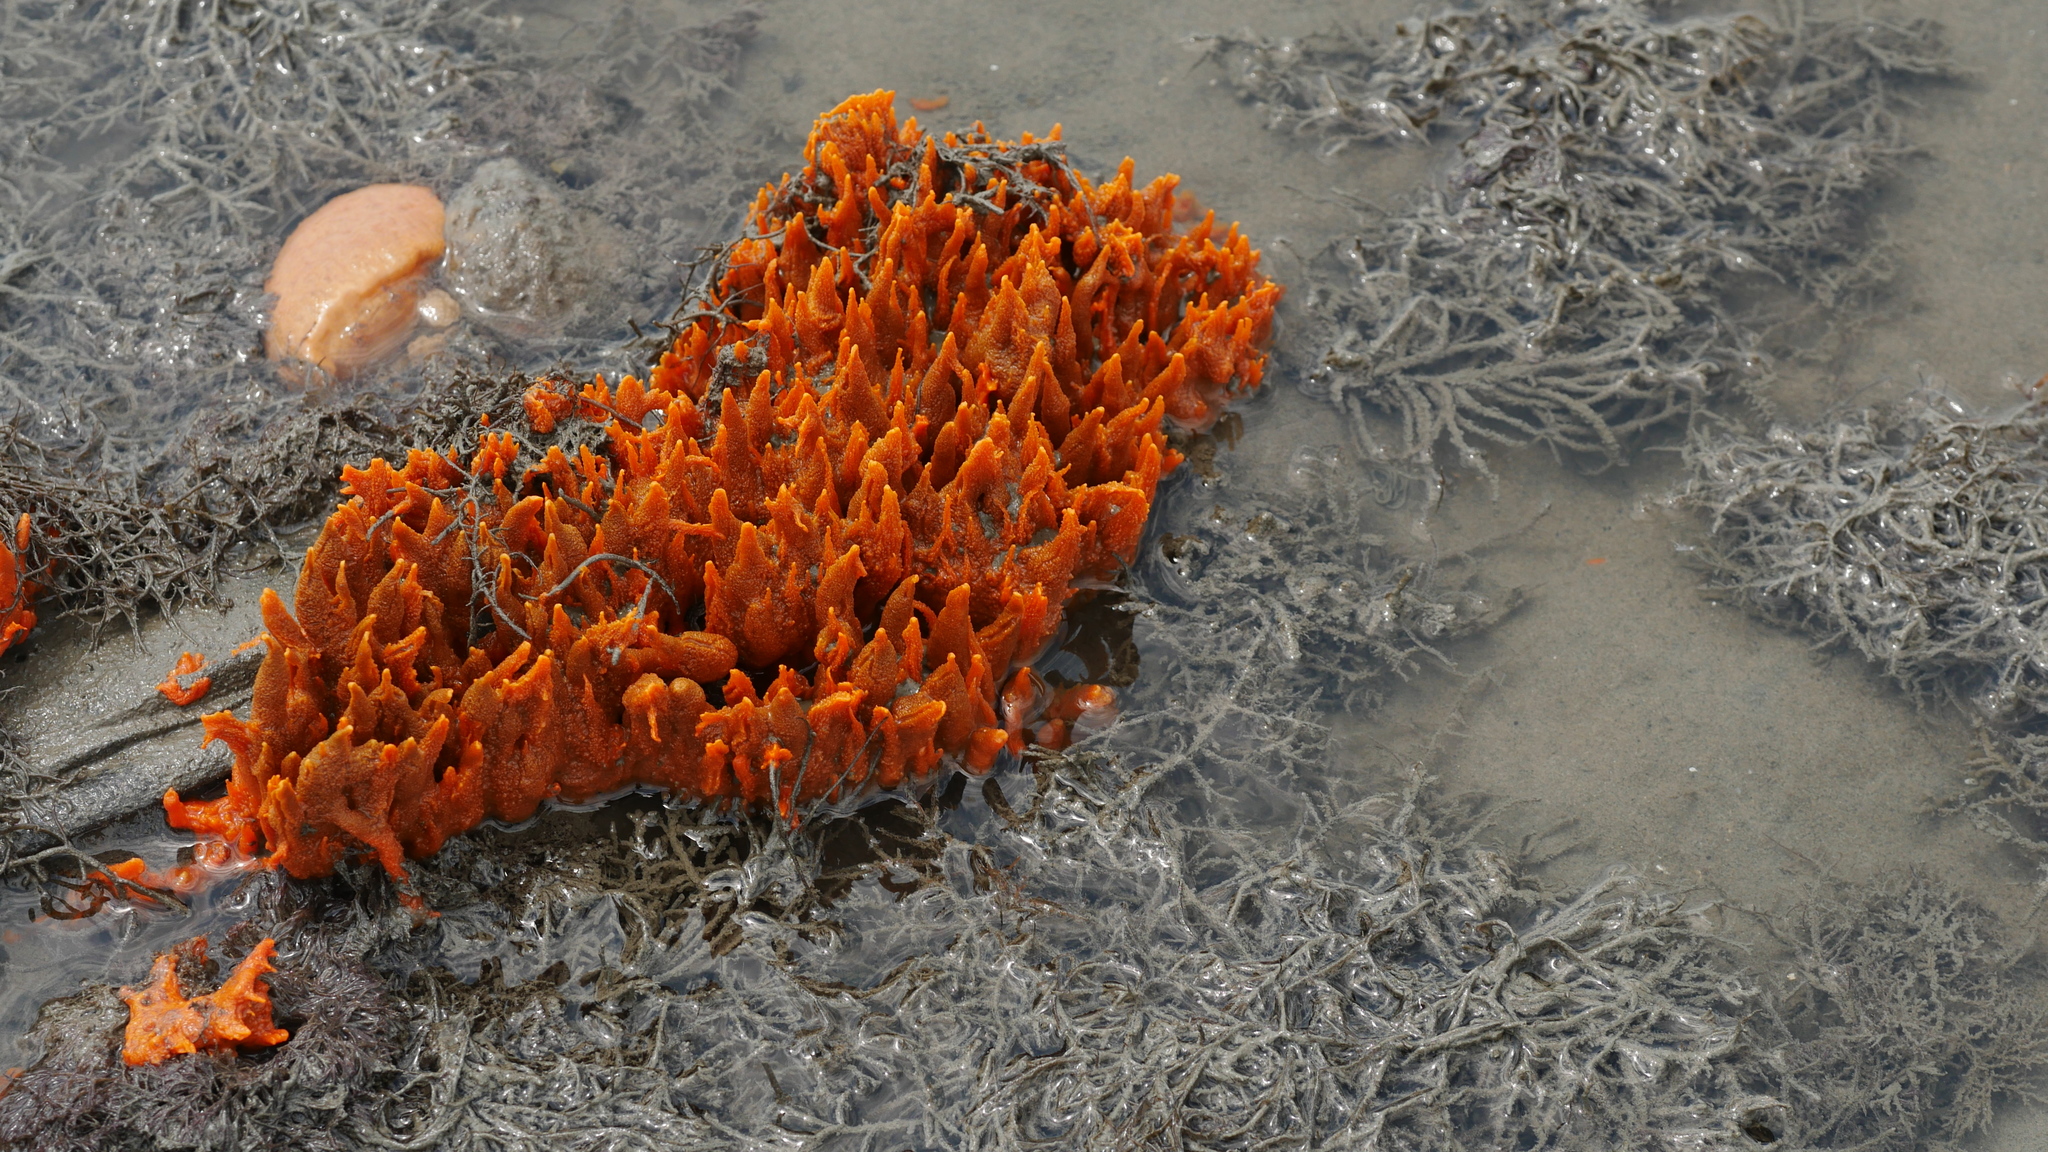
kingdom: Animalia
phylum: Porifera
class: Demospongiae
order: Suberitida
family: Halichondriidae
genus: Hymeniacidon
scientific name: Hymeniacidon heliophila
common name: Diurnal horny sponge
